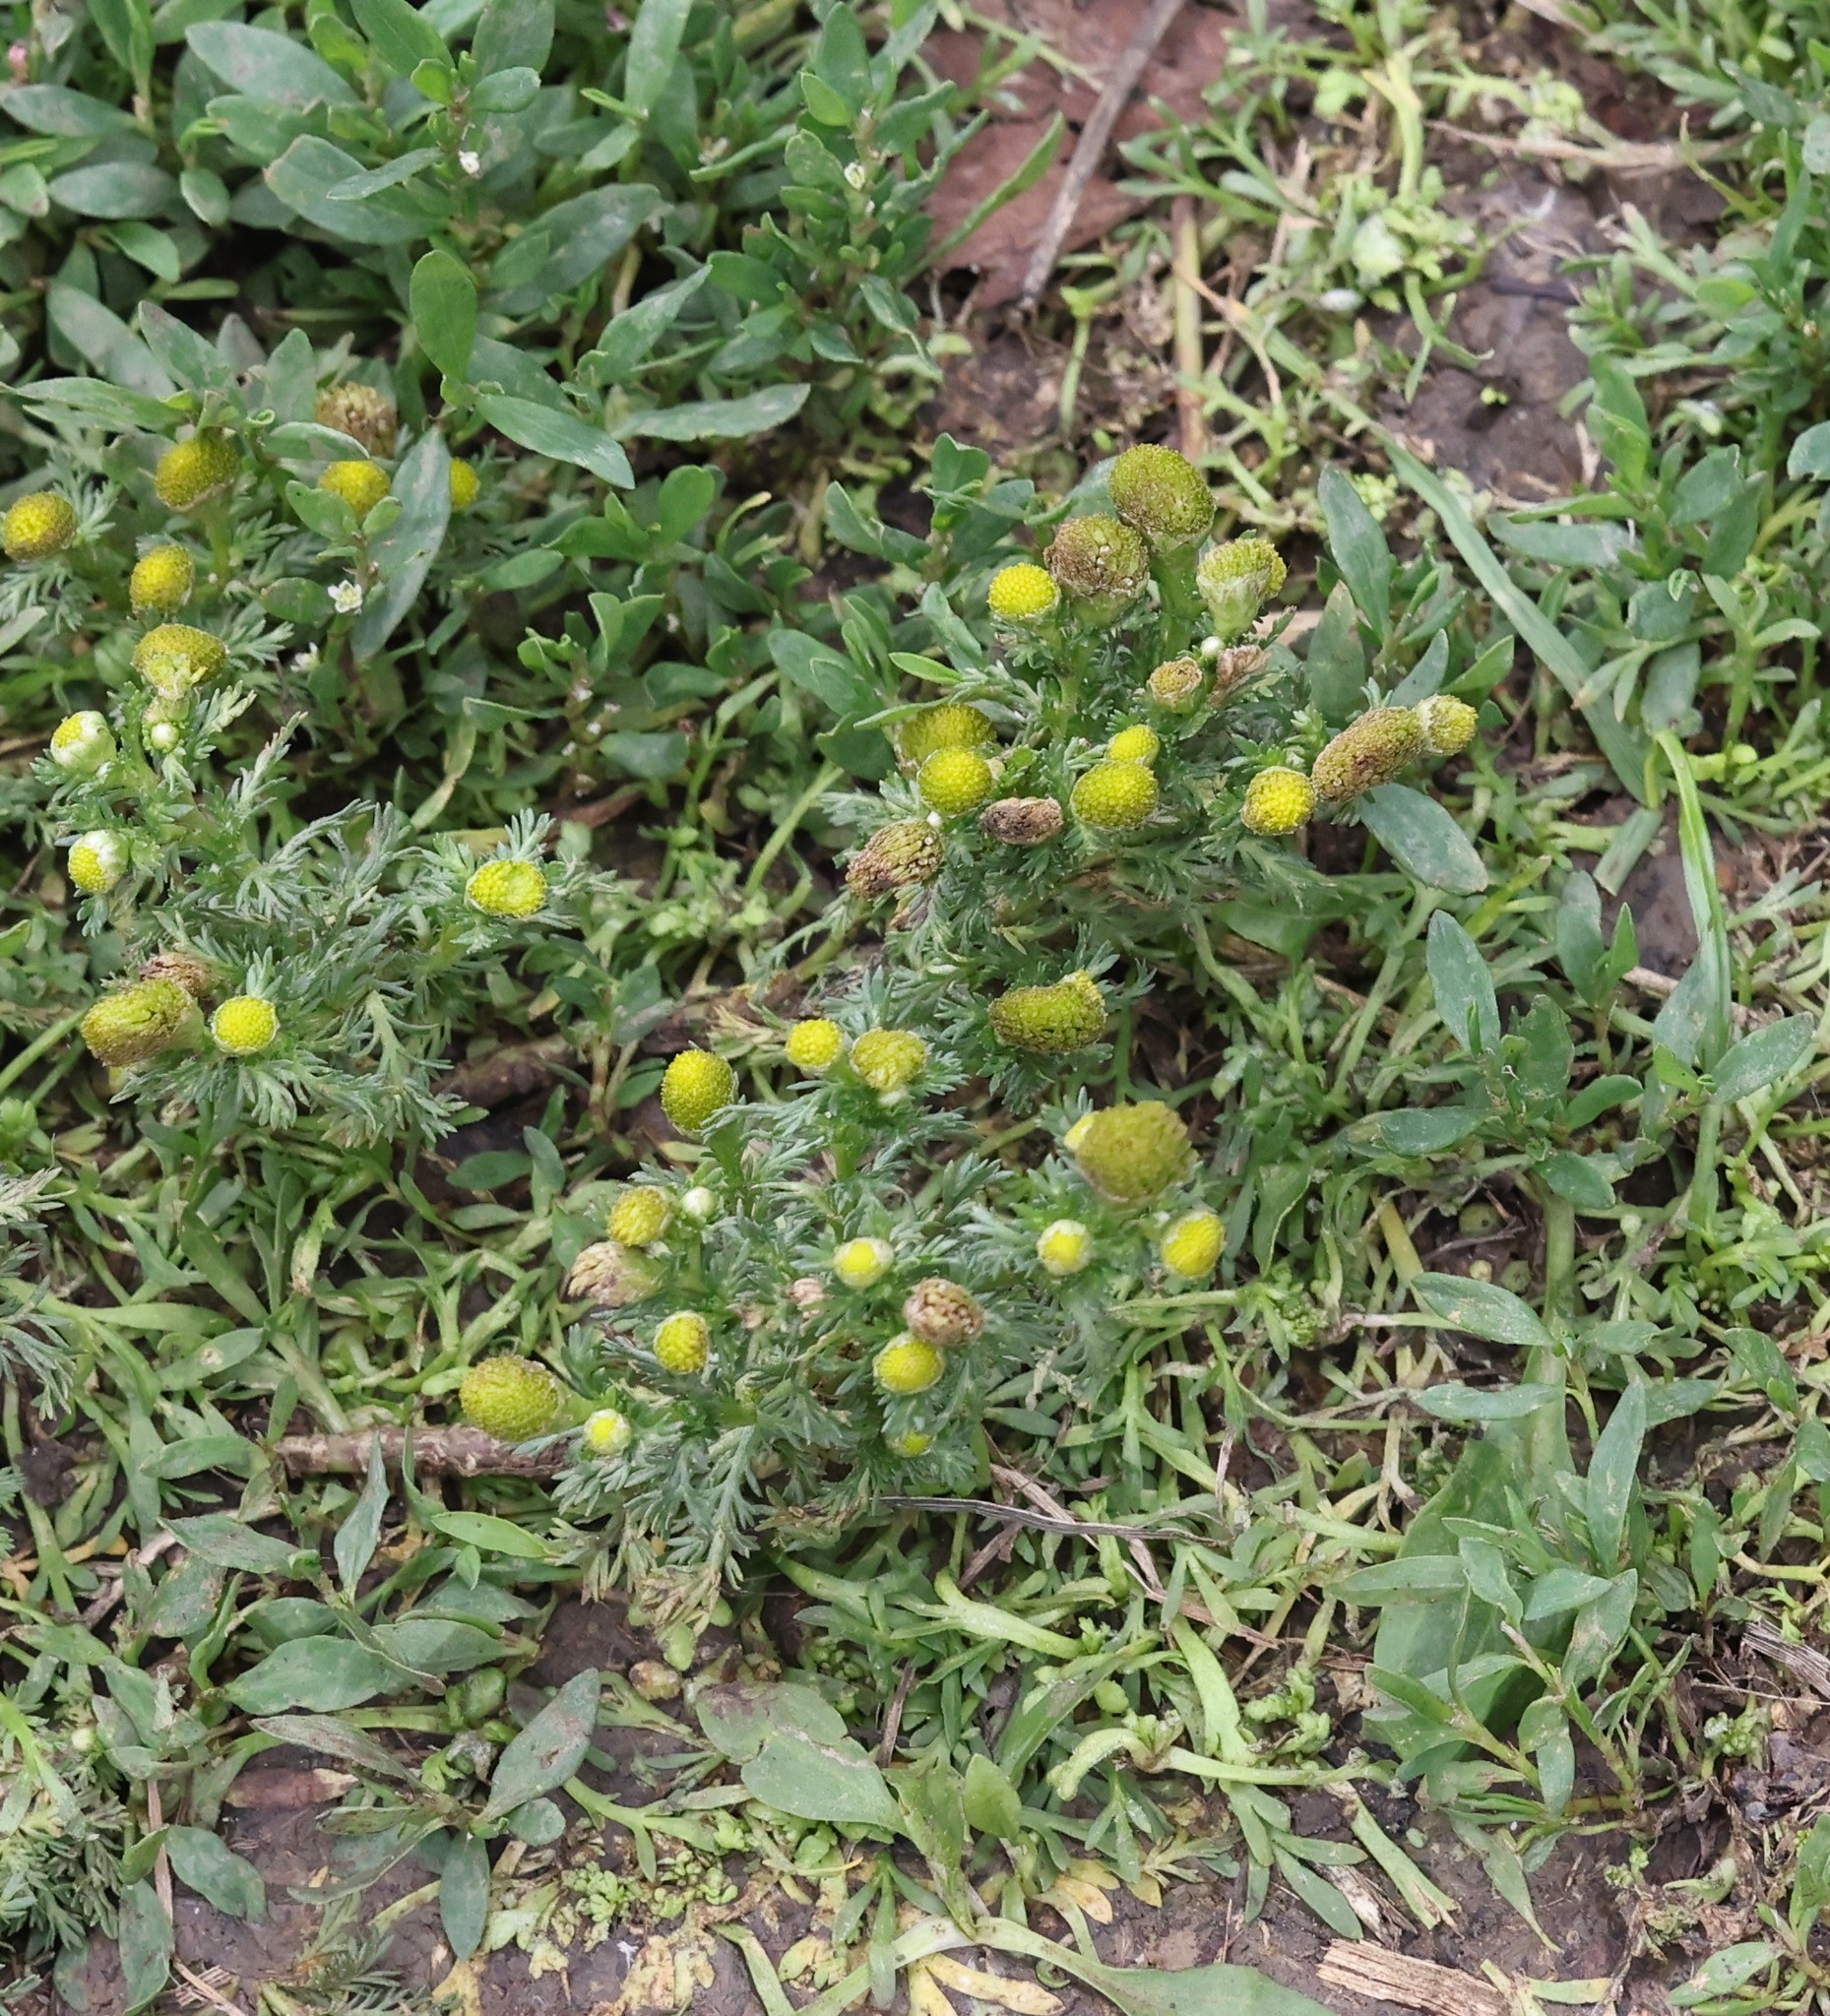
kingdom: Plantae
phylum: Tracheophyta
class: Magnoliopsida
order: Asterales
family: Asteraceae
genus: Matricaria
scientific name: Matricaria discoidea
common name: Disc mayweed
